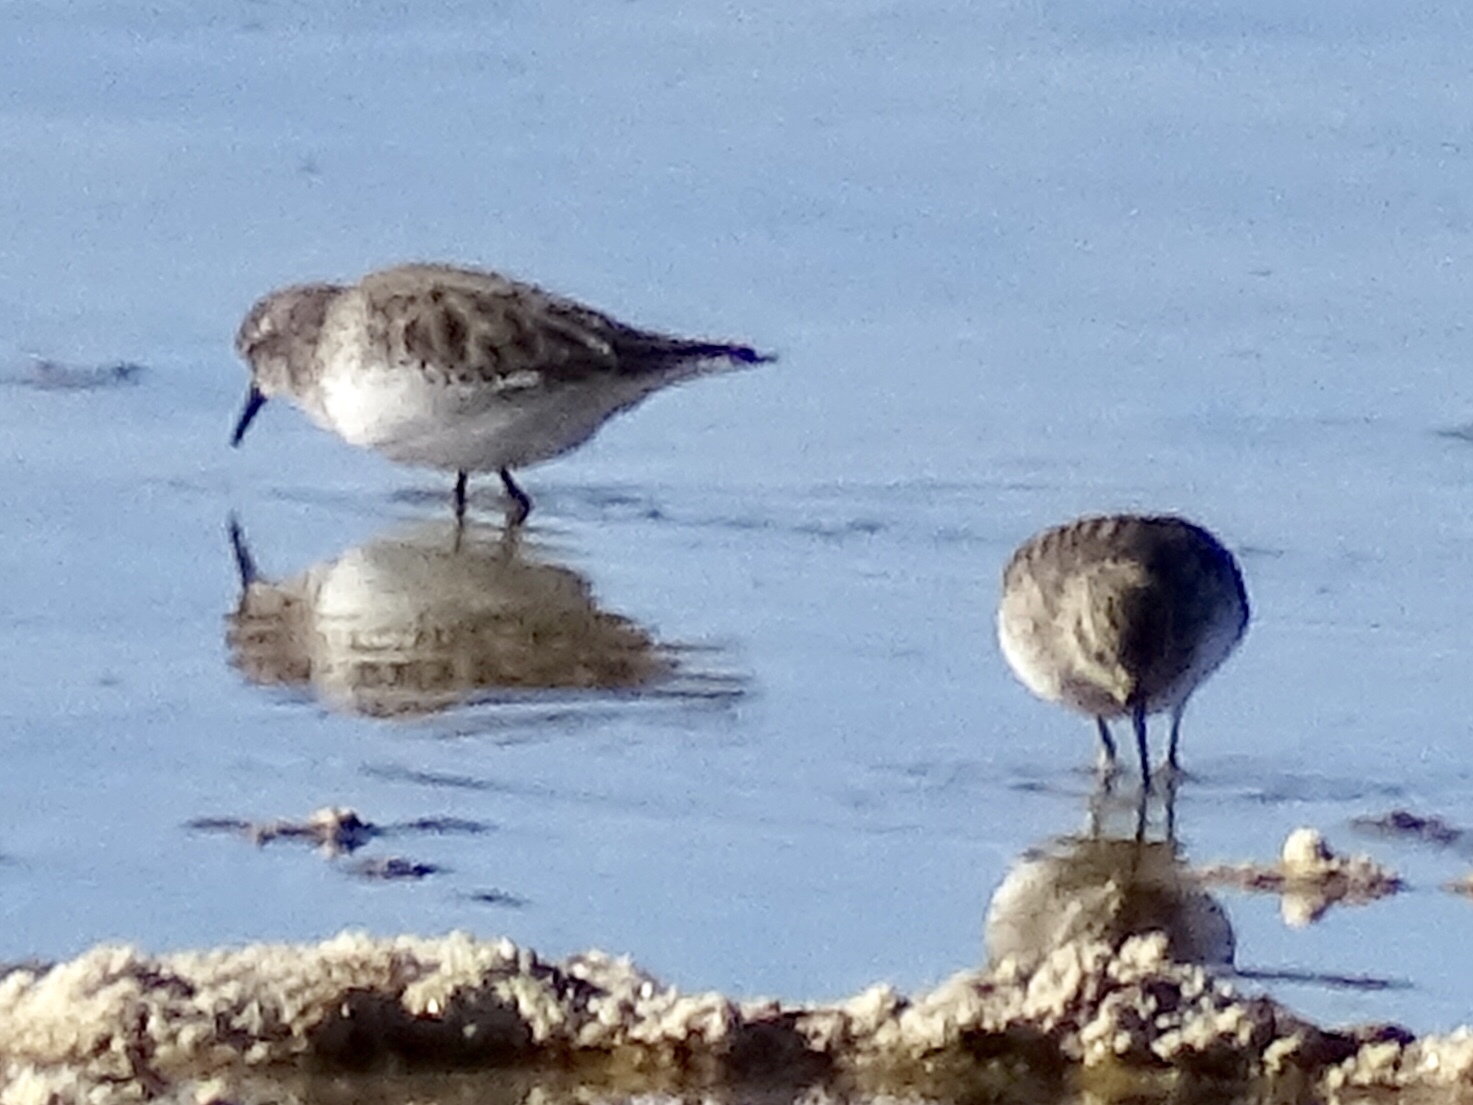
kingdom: Animalia
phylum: Chordata
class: Aves
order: Charadriiformes
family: Scolopacidae
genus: Calidris
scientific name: Calidris minutilla
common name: Least sandpiper
